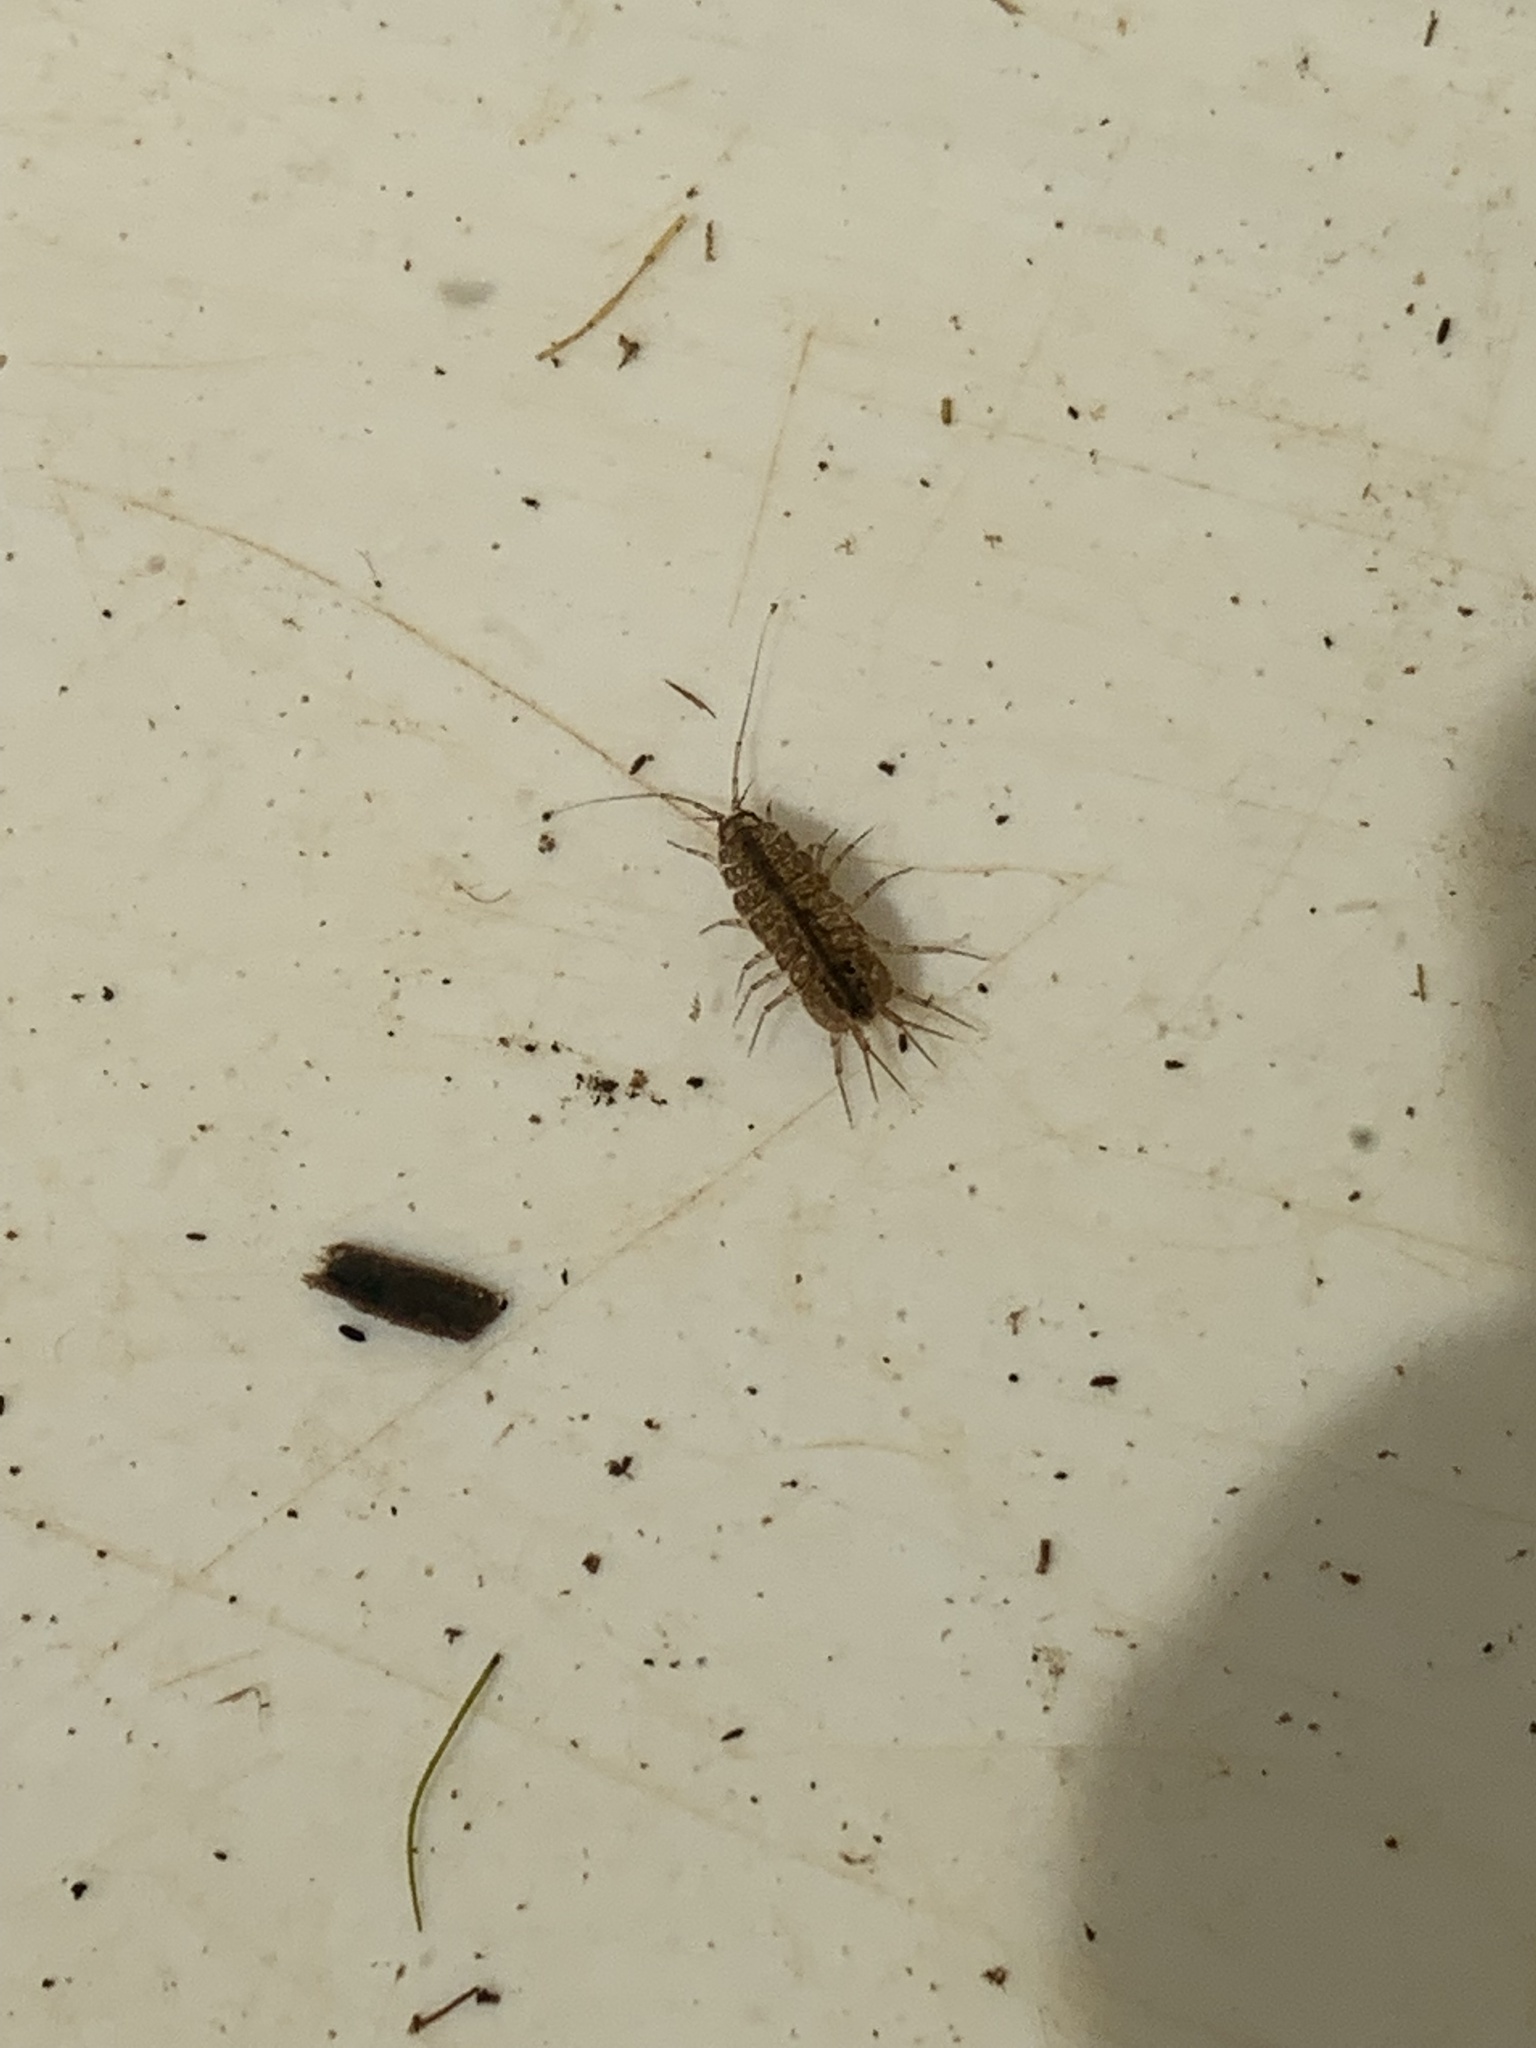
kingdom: Animalia
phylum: Arthropoda
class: Malacostraca
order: Isopoda
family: Asellidae
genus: Asellus
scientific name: Asellus aquaticus
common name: Water hog lice/slaters
